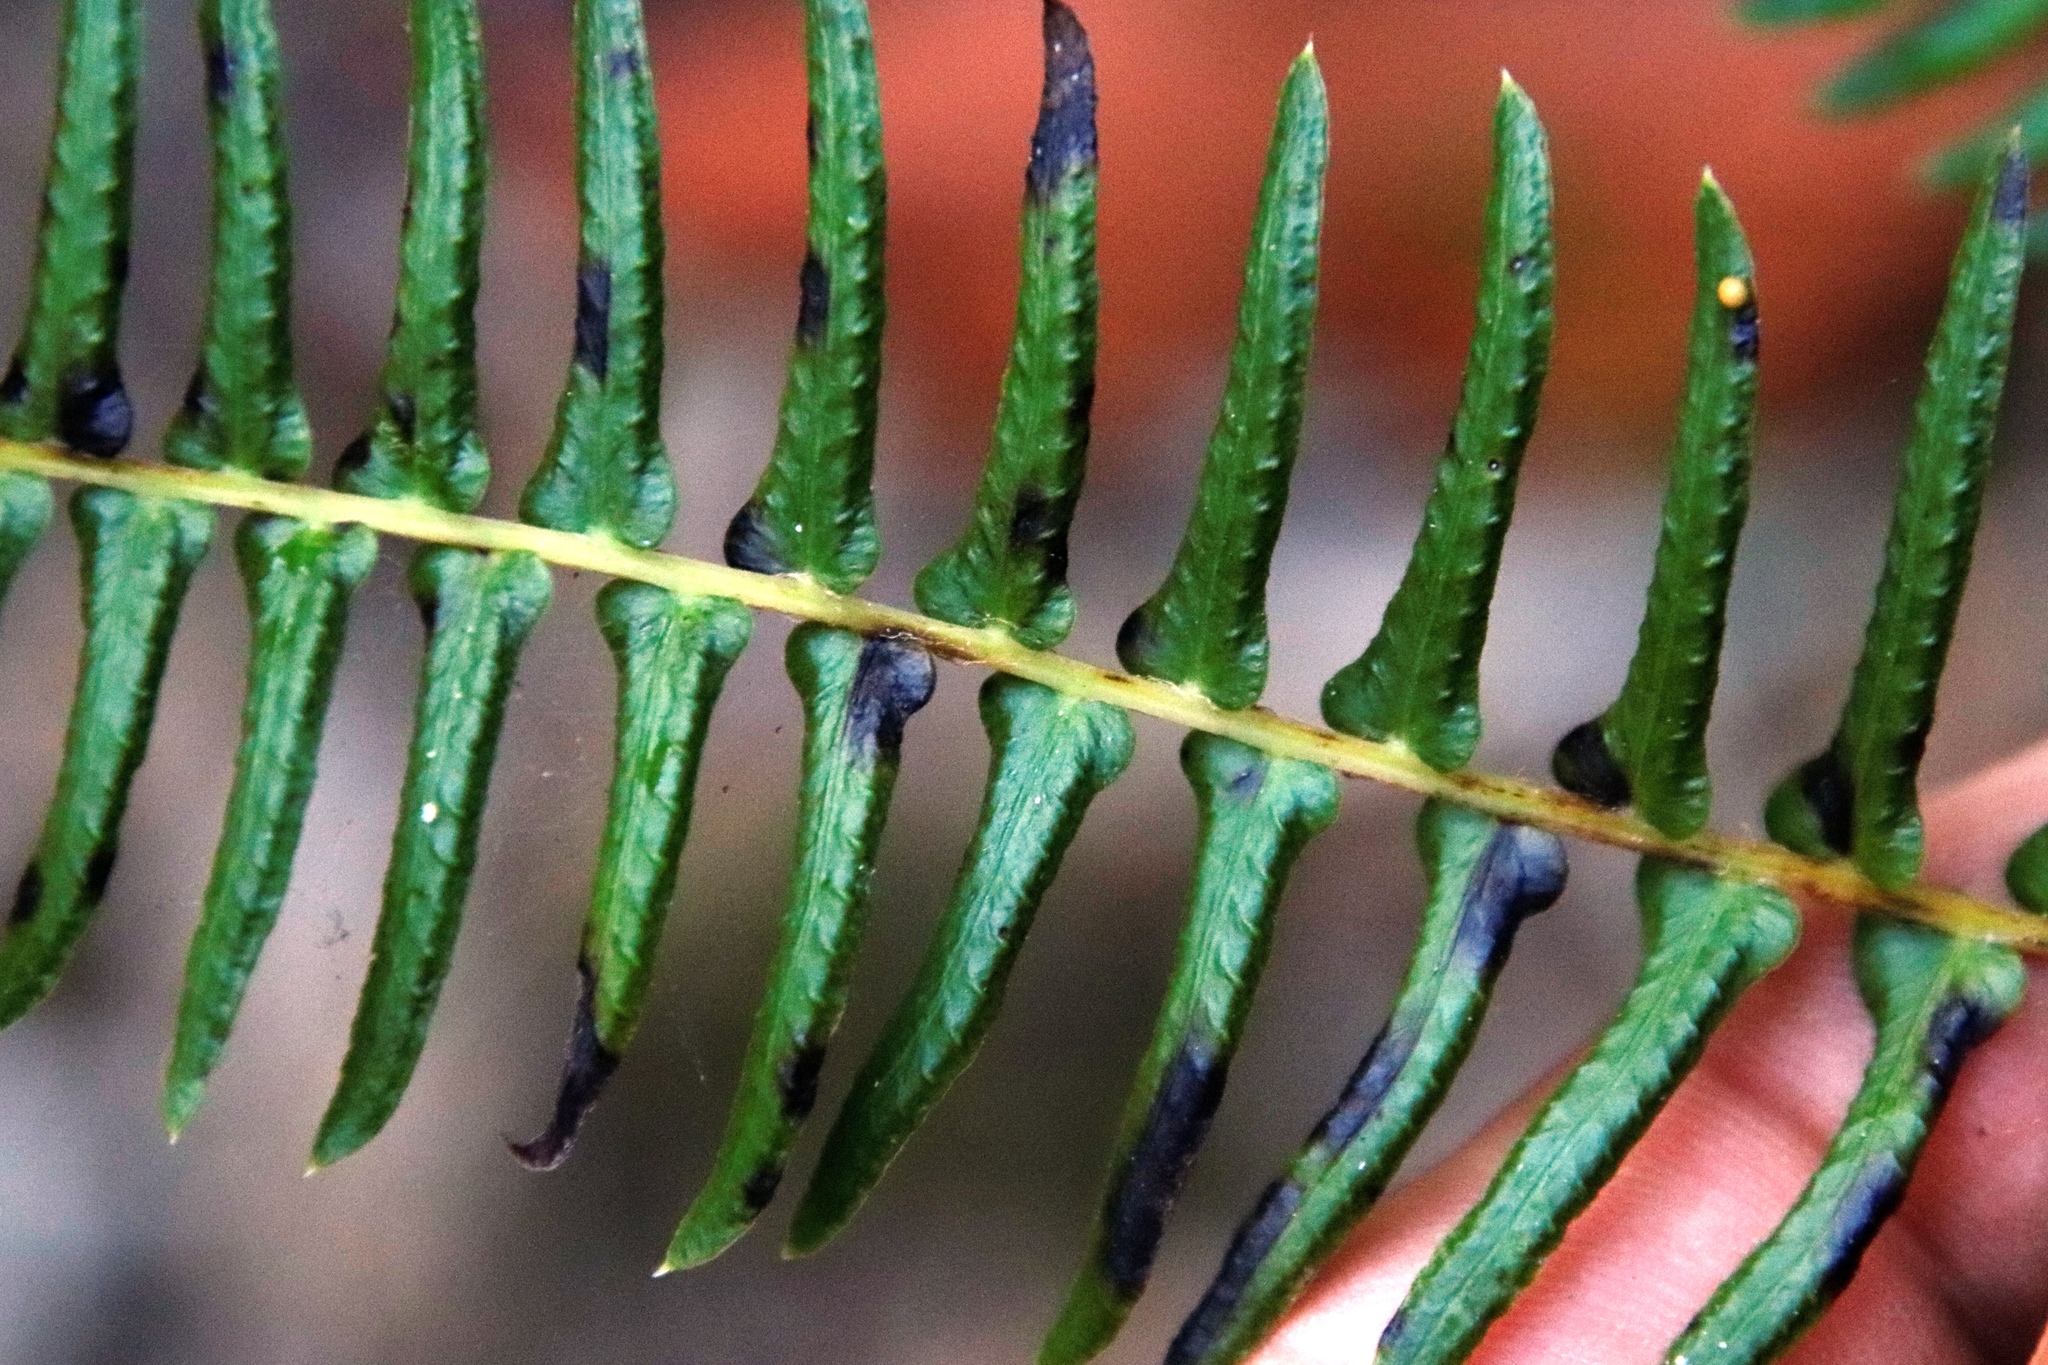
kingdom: Plantae
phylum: Tracheophyta
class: Polypodiopsida
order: Polypodiales
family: Blechnaceae
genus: Blechnum
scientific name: Blechnum australe
